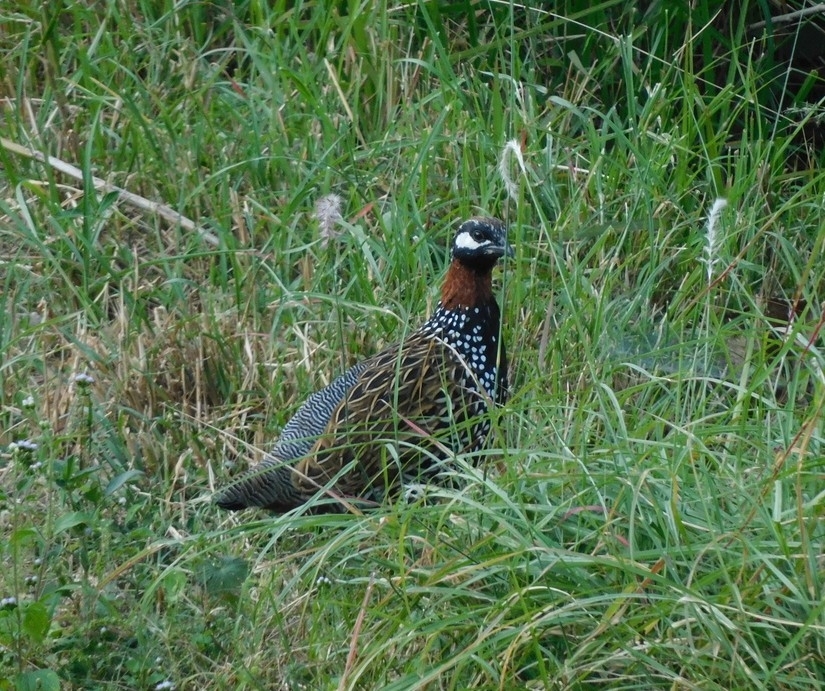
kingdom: Animalia
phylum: Chordata
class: Aves
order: Galliformes
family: Phasianidae
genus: Francolinus
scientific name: Francolinus francolinus
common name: Black francolin
